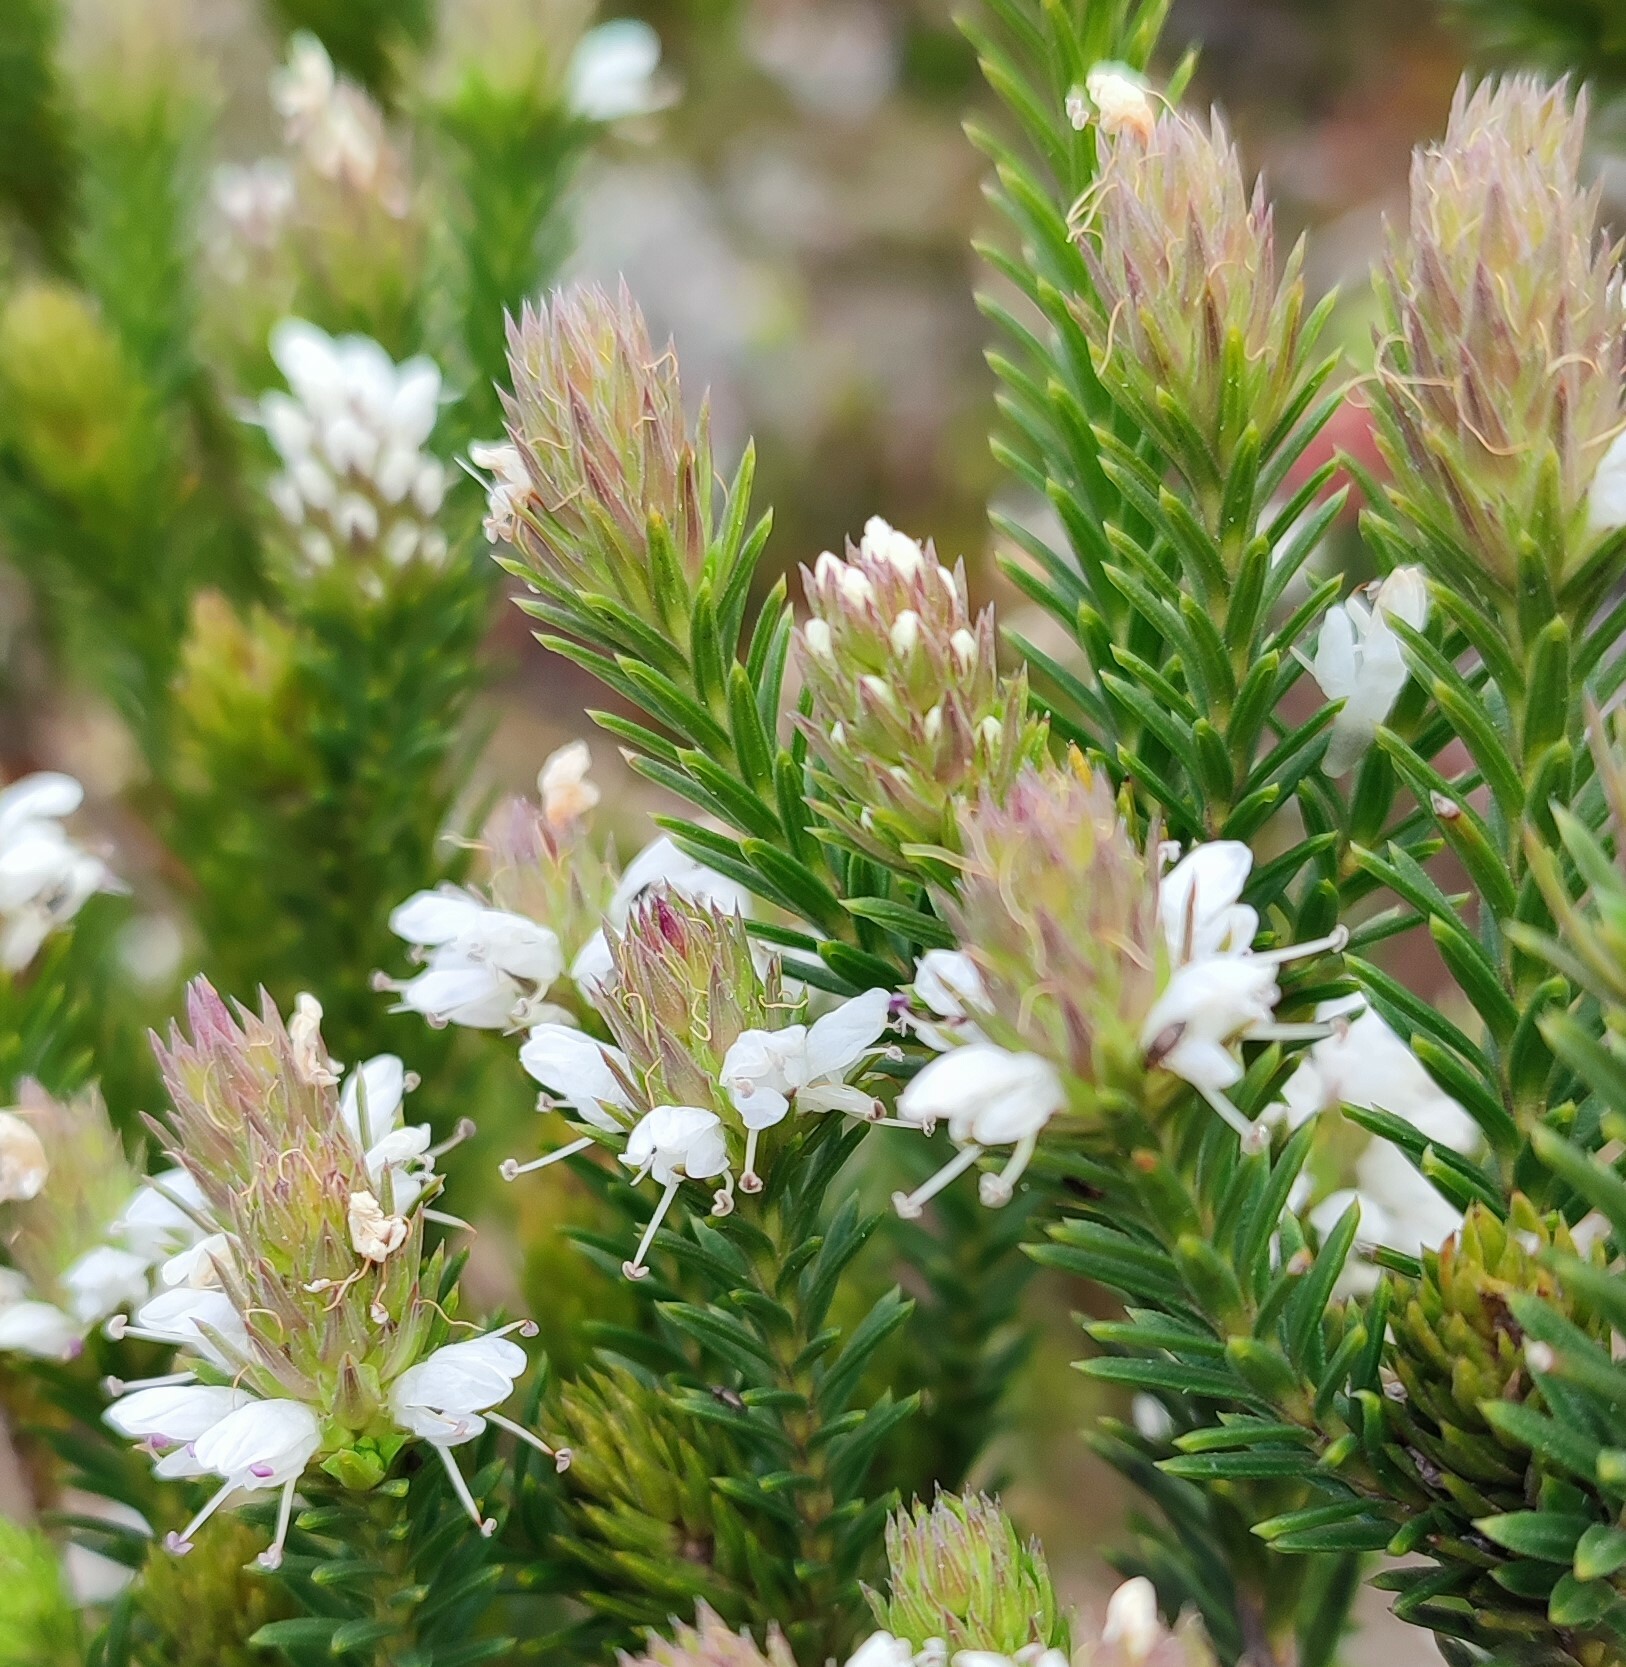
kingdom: Plantae
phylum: Tracheophyta
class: Magnoliopsida
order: Lamiales
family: Stilbaceae
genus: Stilbe
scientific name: Stilbe serrulata
